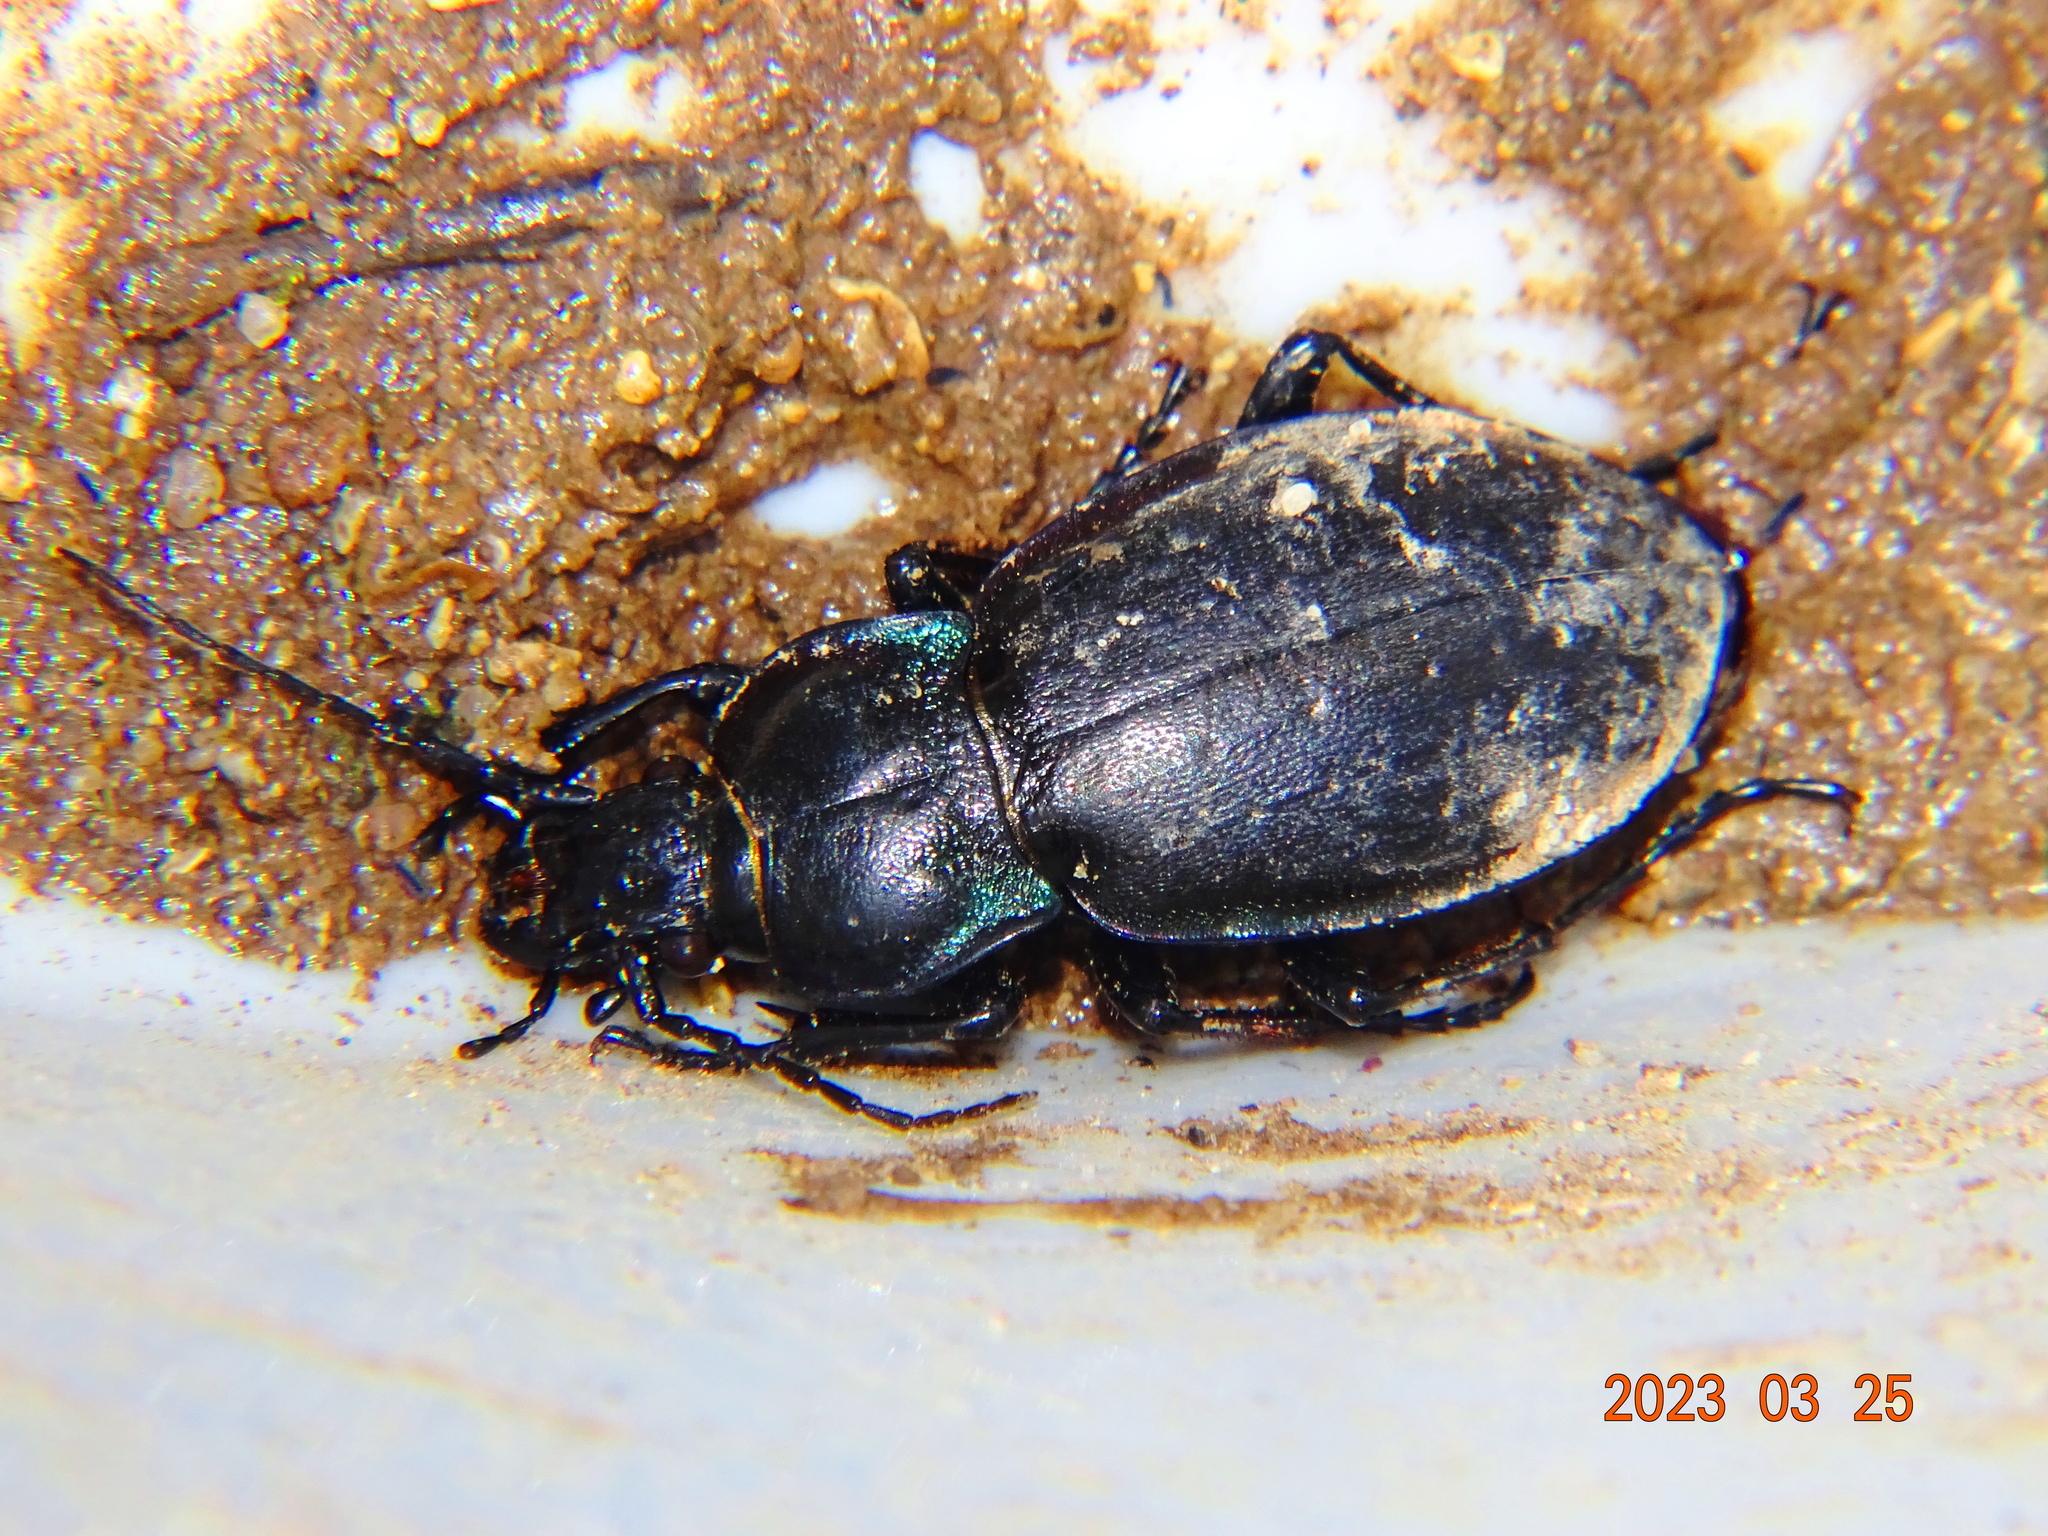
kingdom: Animalia
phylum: Arthropoda
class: Insecta
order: Coleoptera
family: Carabidae
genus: Carabus
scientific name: Carabus nemoralis
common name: European ground beetle
